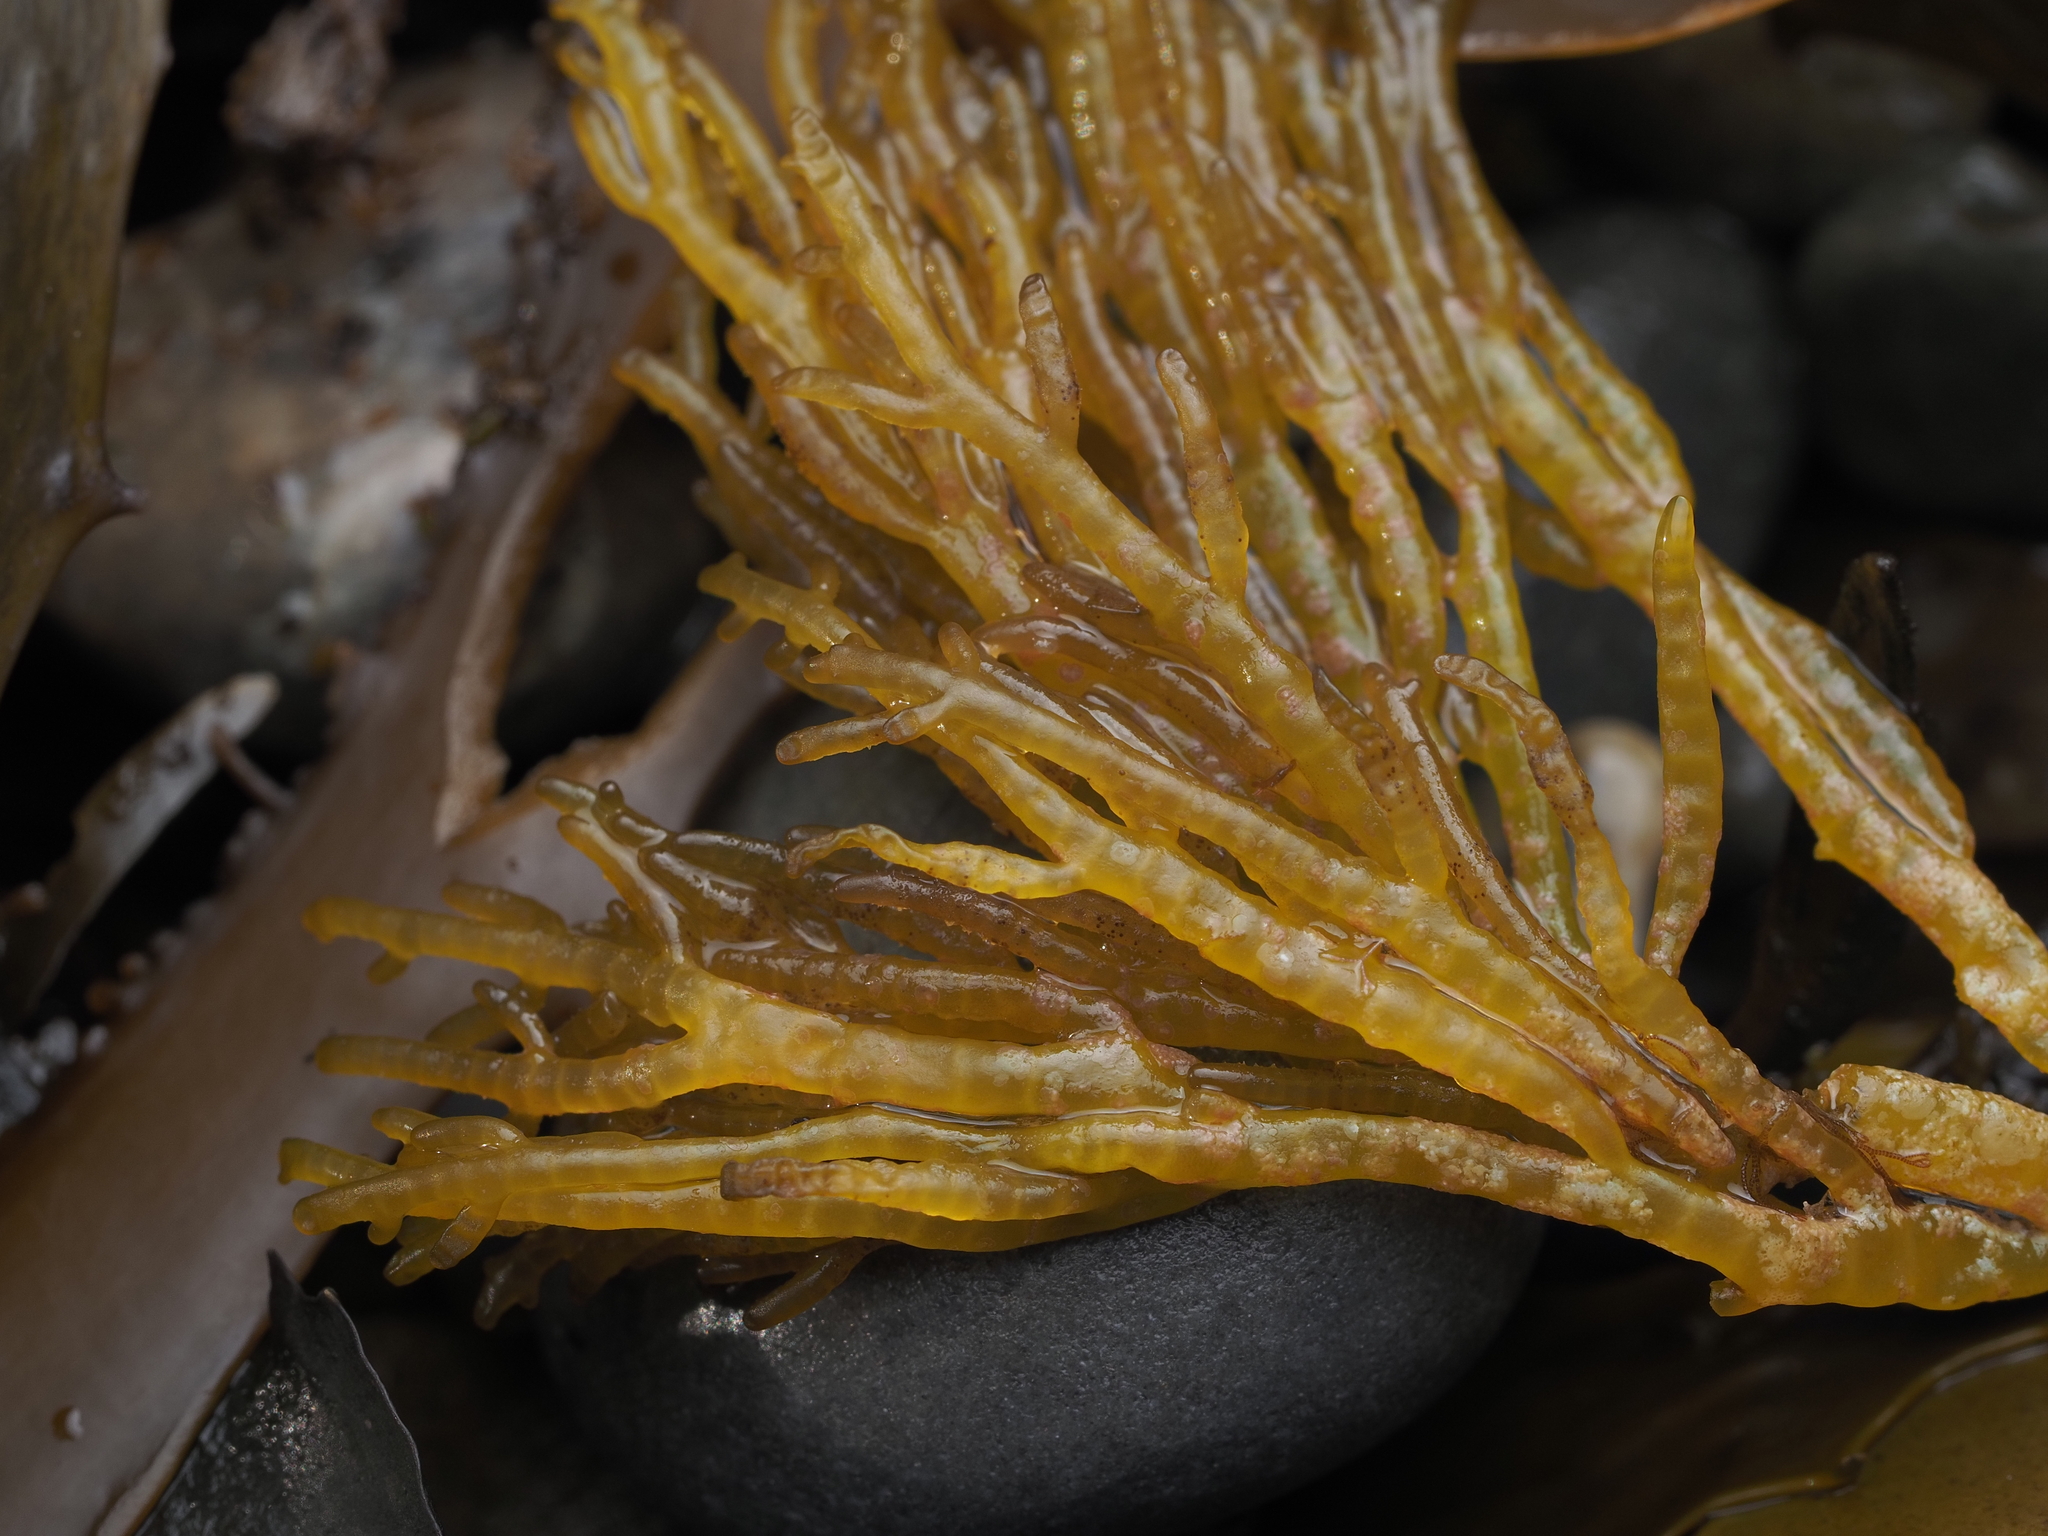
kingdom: Plantae
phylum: Rhodophyta
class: Florideophyceae
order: Rhodymeniales
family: Champiaceae
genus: Champia
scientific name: Champia novae-zelandiae
